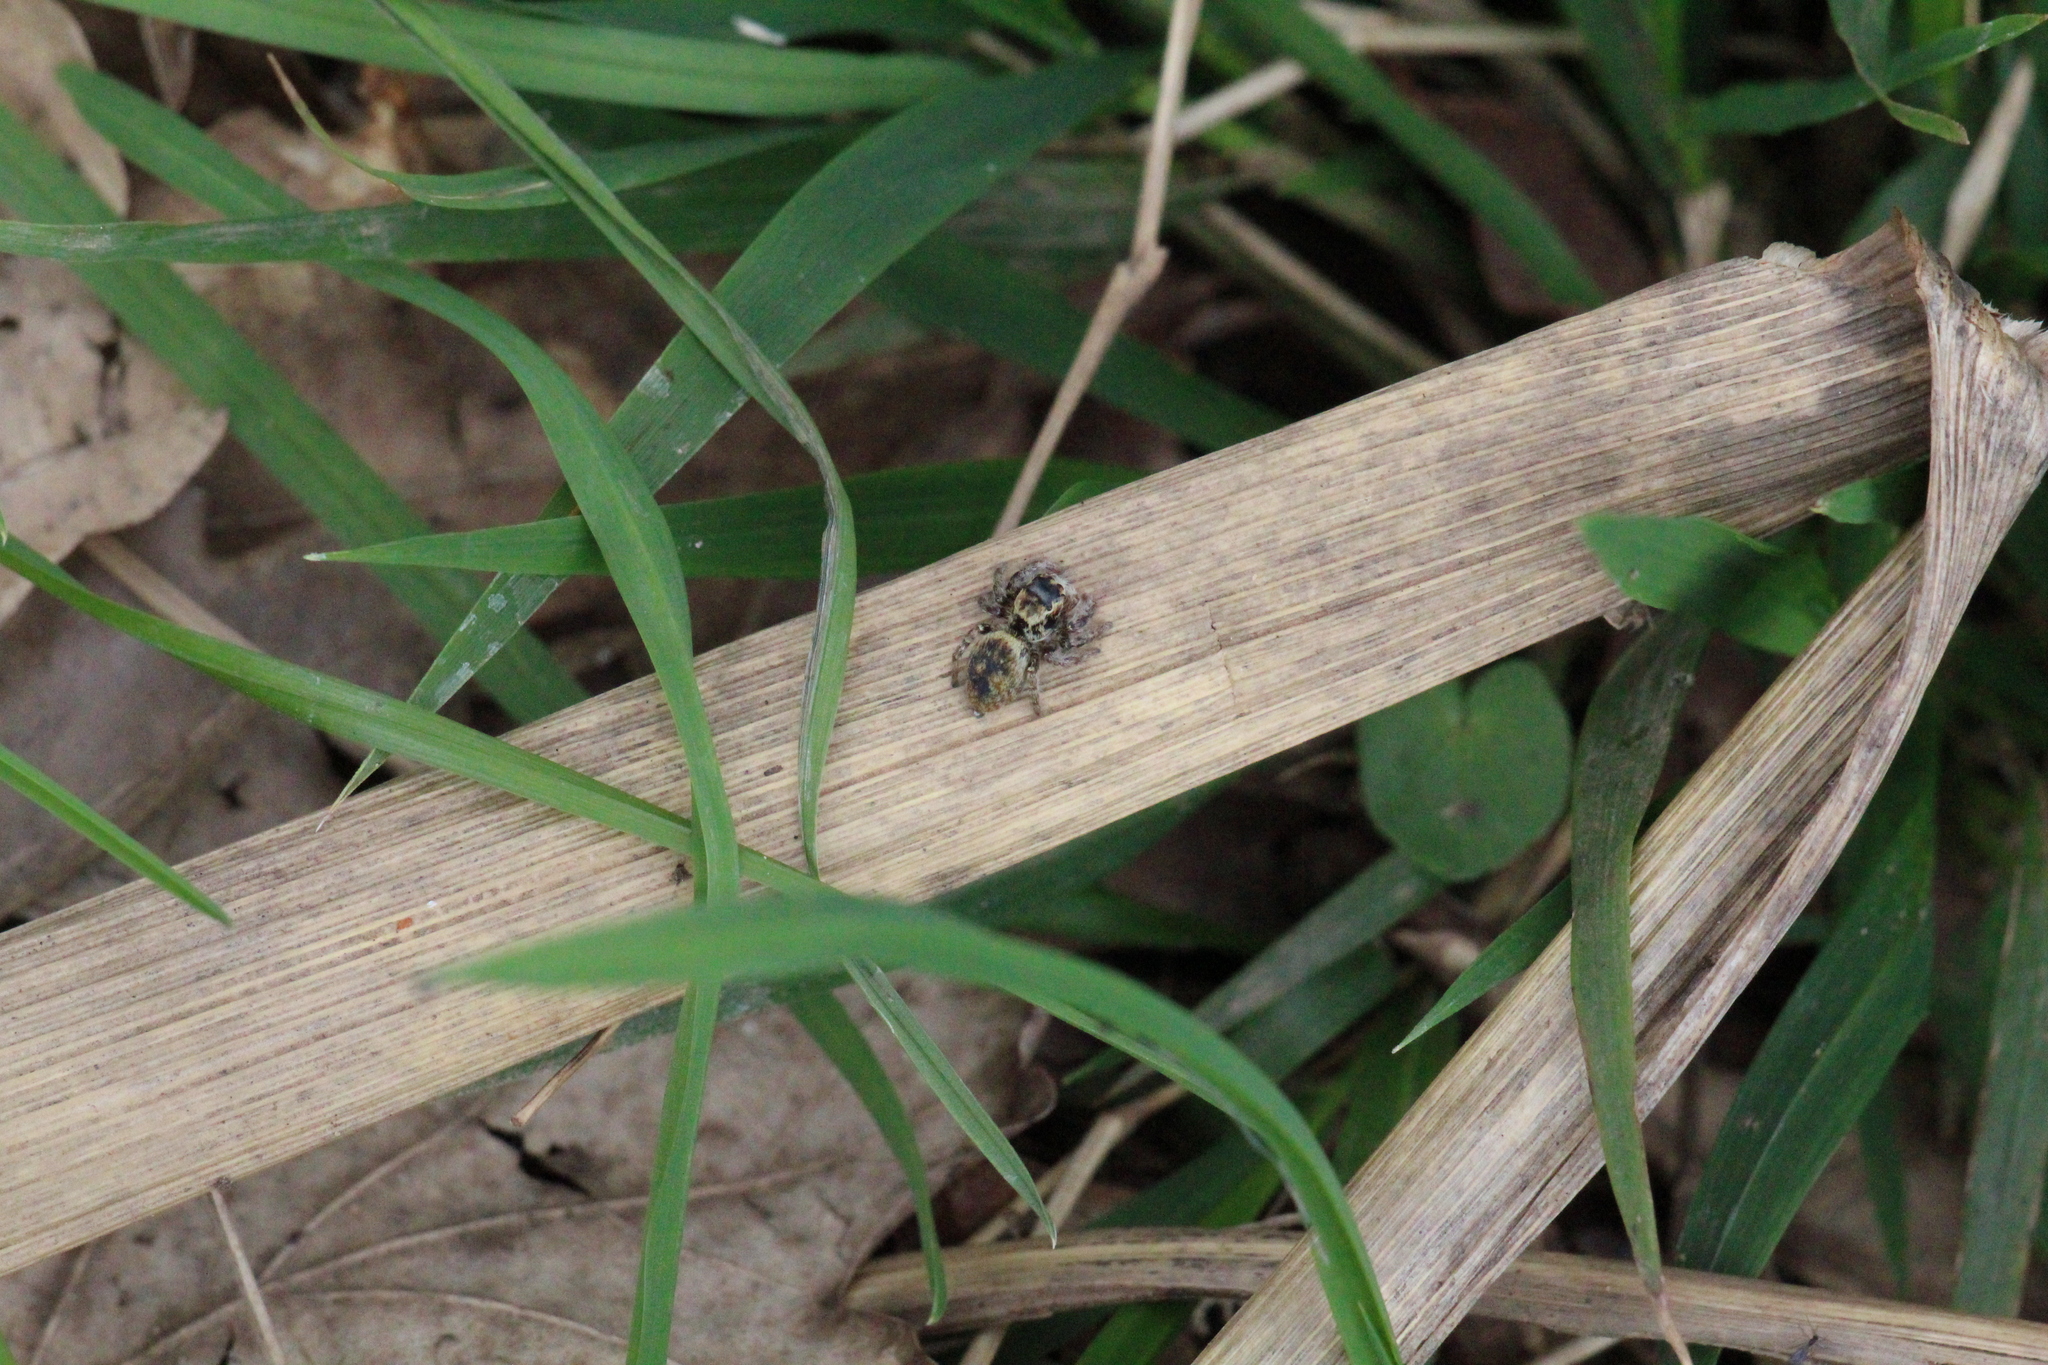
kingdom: Animalia
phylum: Arthropoda
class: Arachnida
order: Araneae
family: Salticidae
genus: Carrhotus
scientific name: Carrhotus xanthogramma
